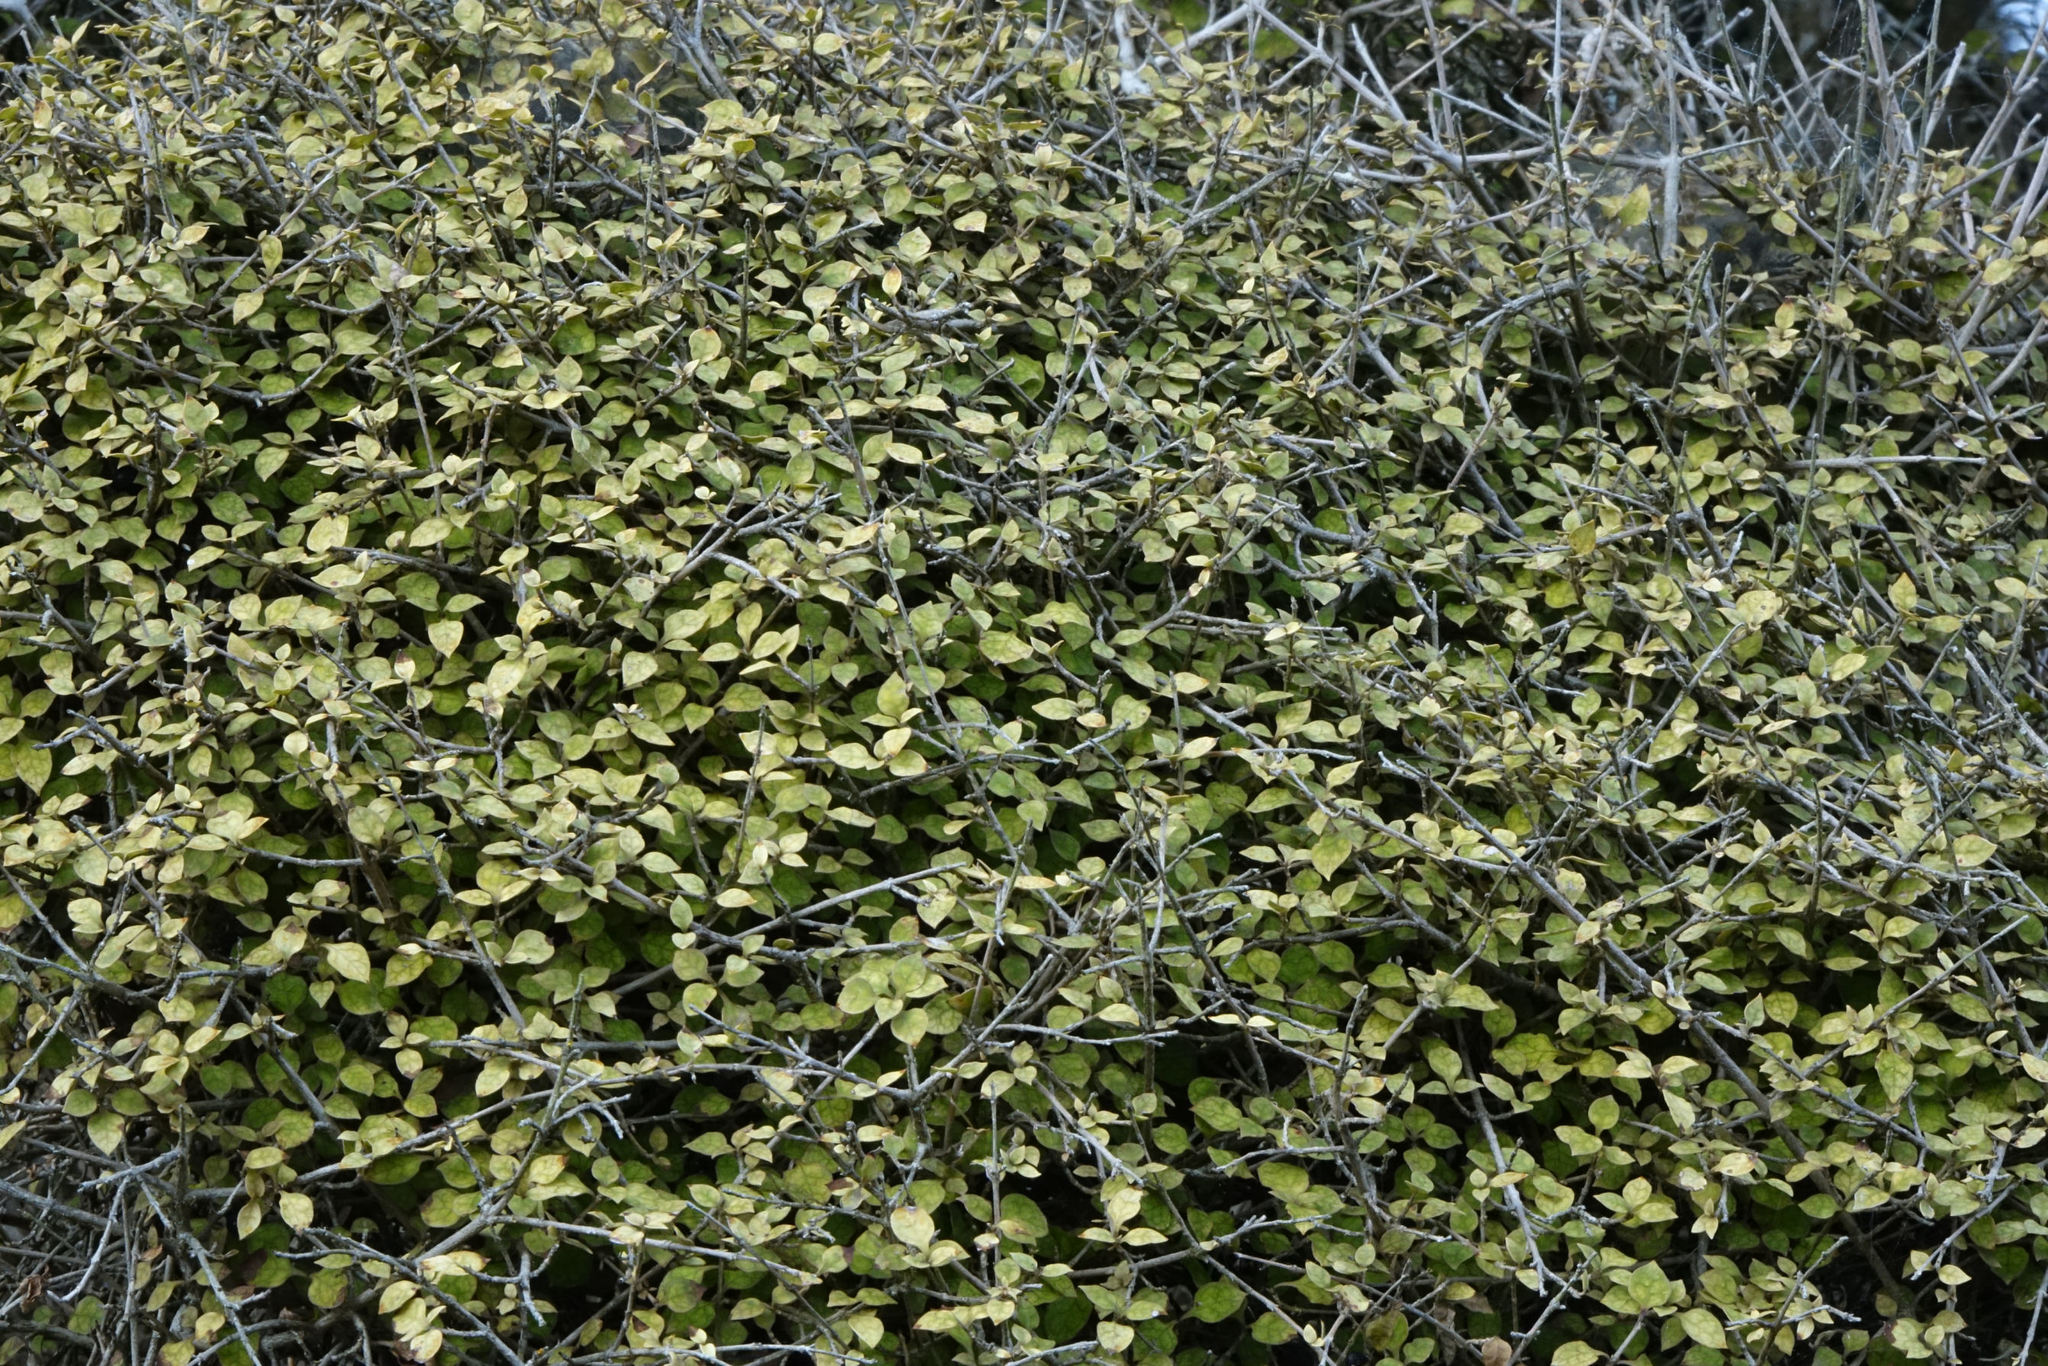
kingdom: Plantae
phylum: Tracheophyta
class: Magnoliopsida
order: Gentianales
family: Rubiaceae
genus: Coprosma
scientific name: Coprosma areolata
